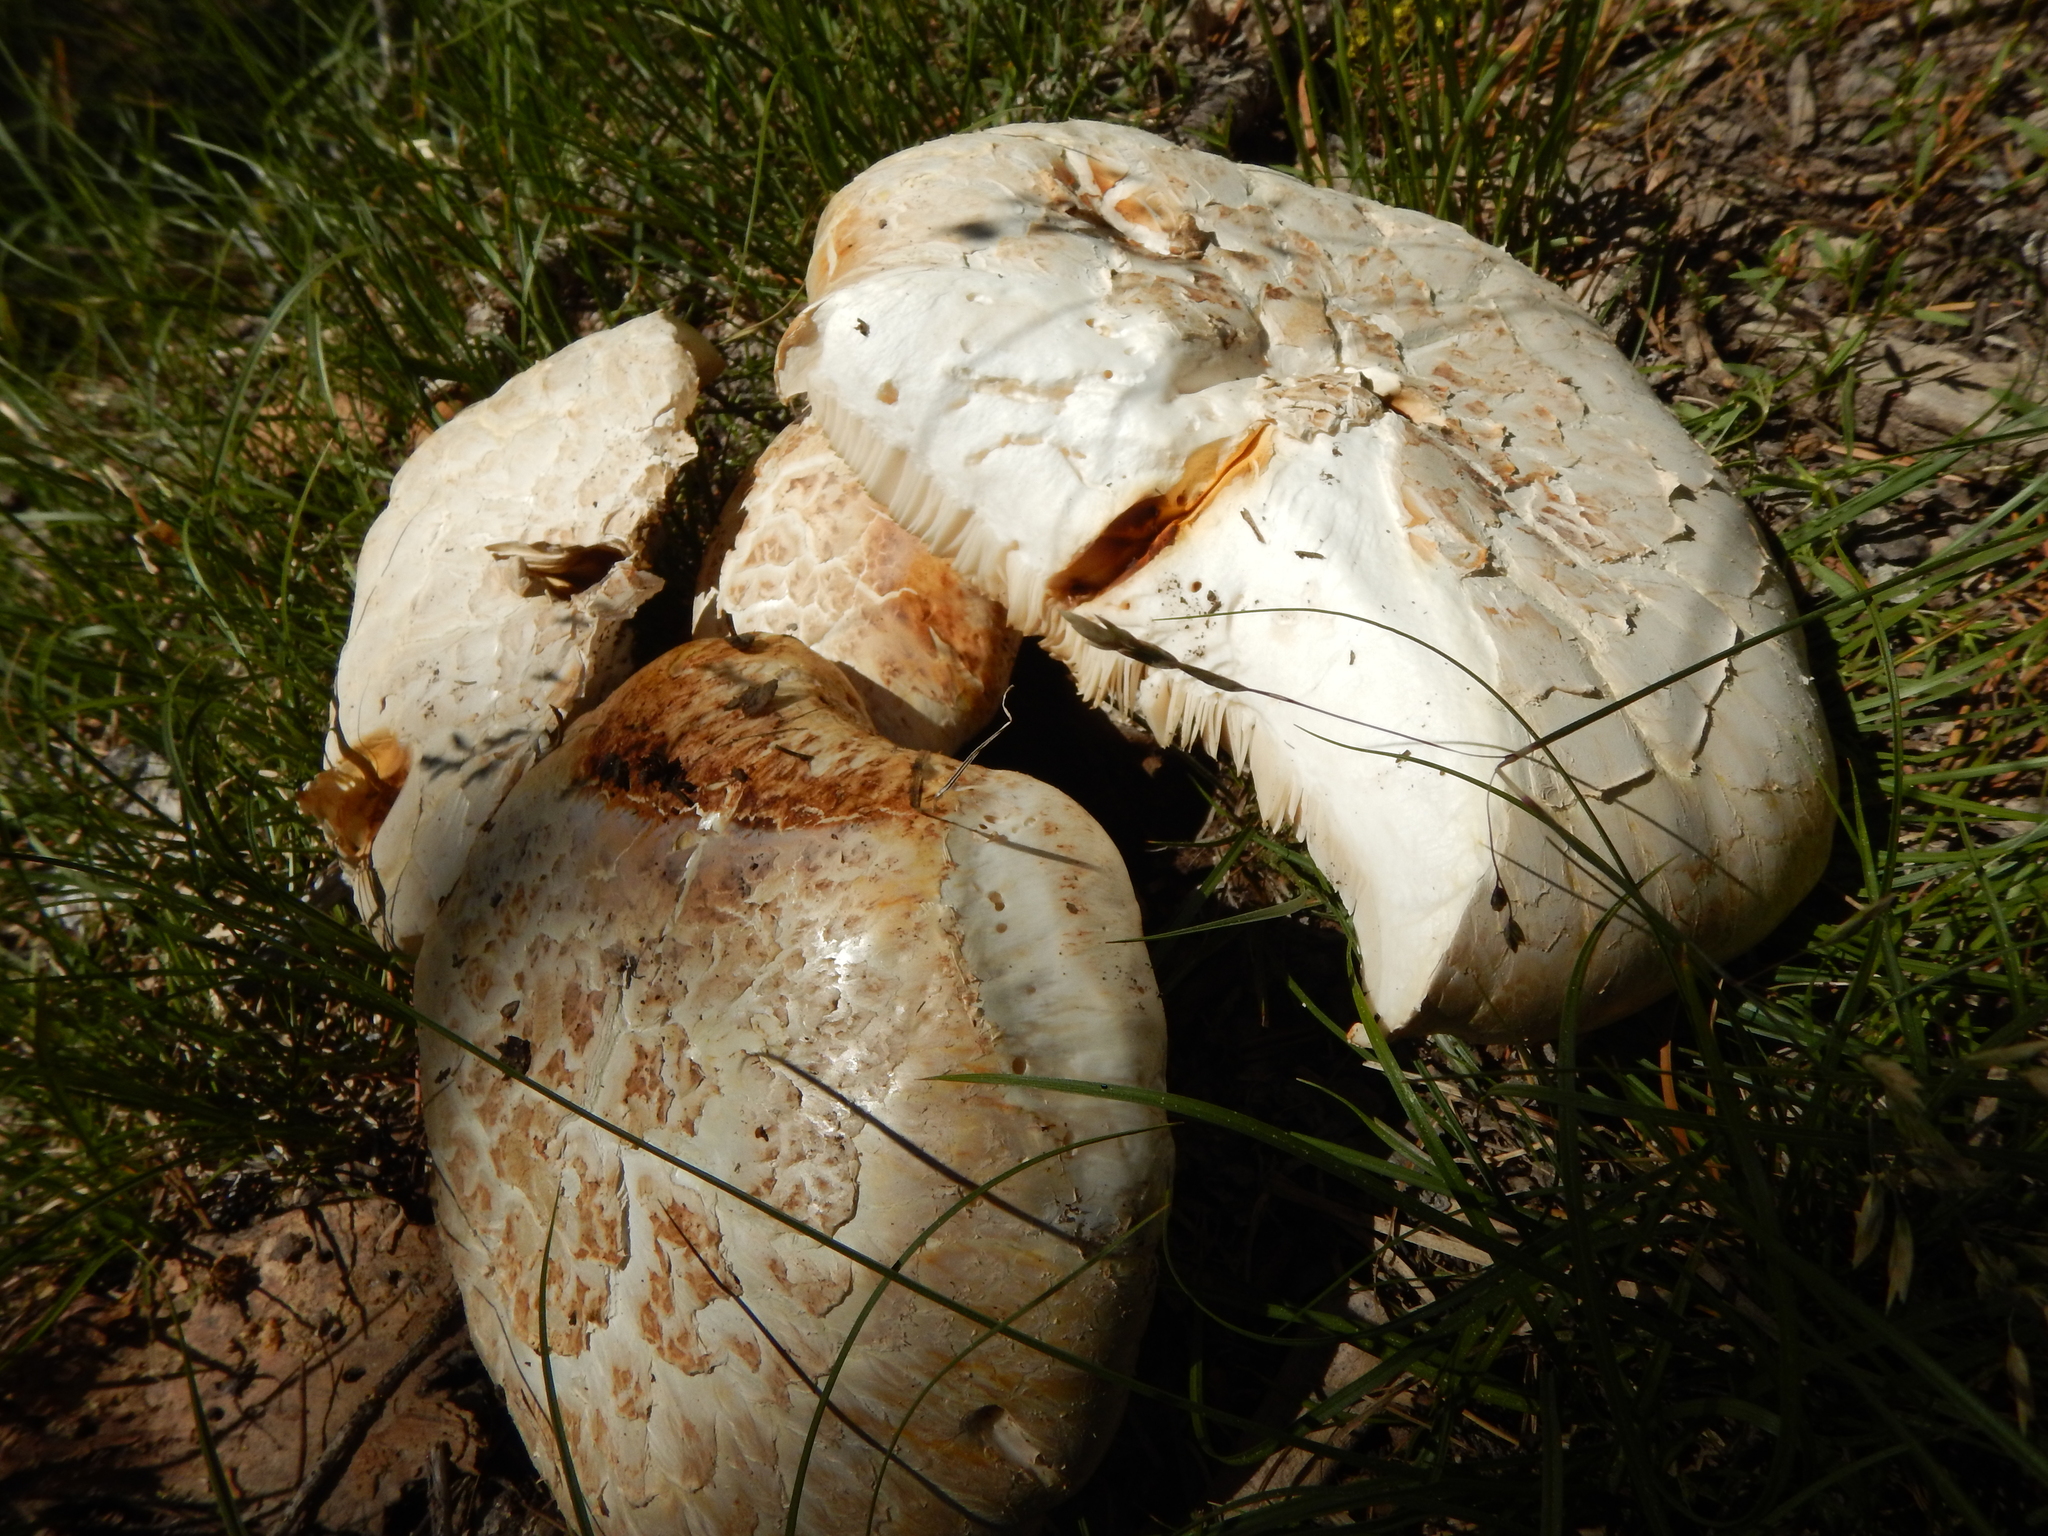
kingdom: Fungi
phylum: Basidiomycota
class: Agaricomycetes
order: Gloeophyllales
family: Gloeophyllaceae
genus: Neolentinus
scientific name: Neolentinus ponderosus
